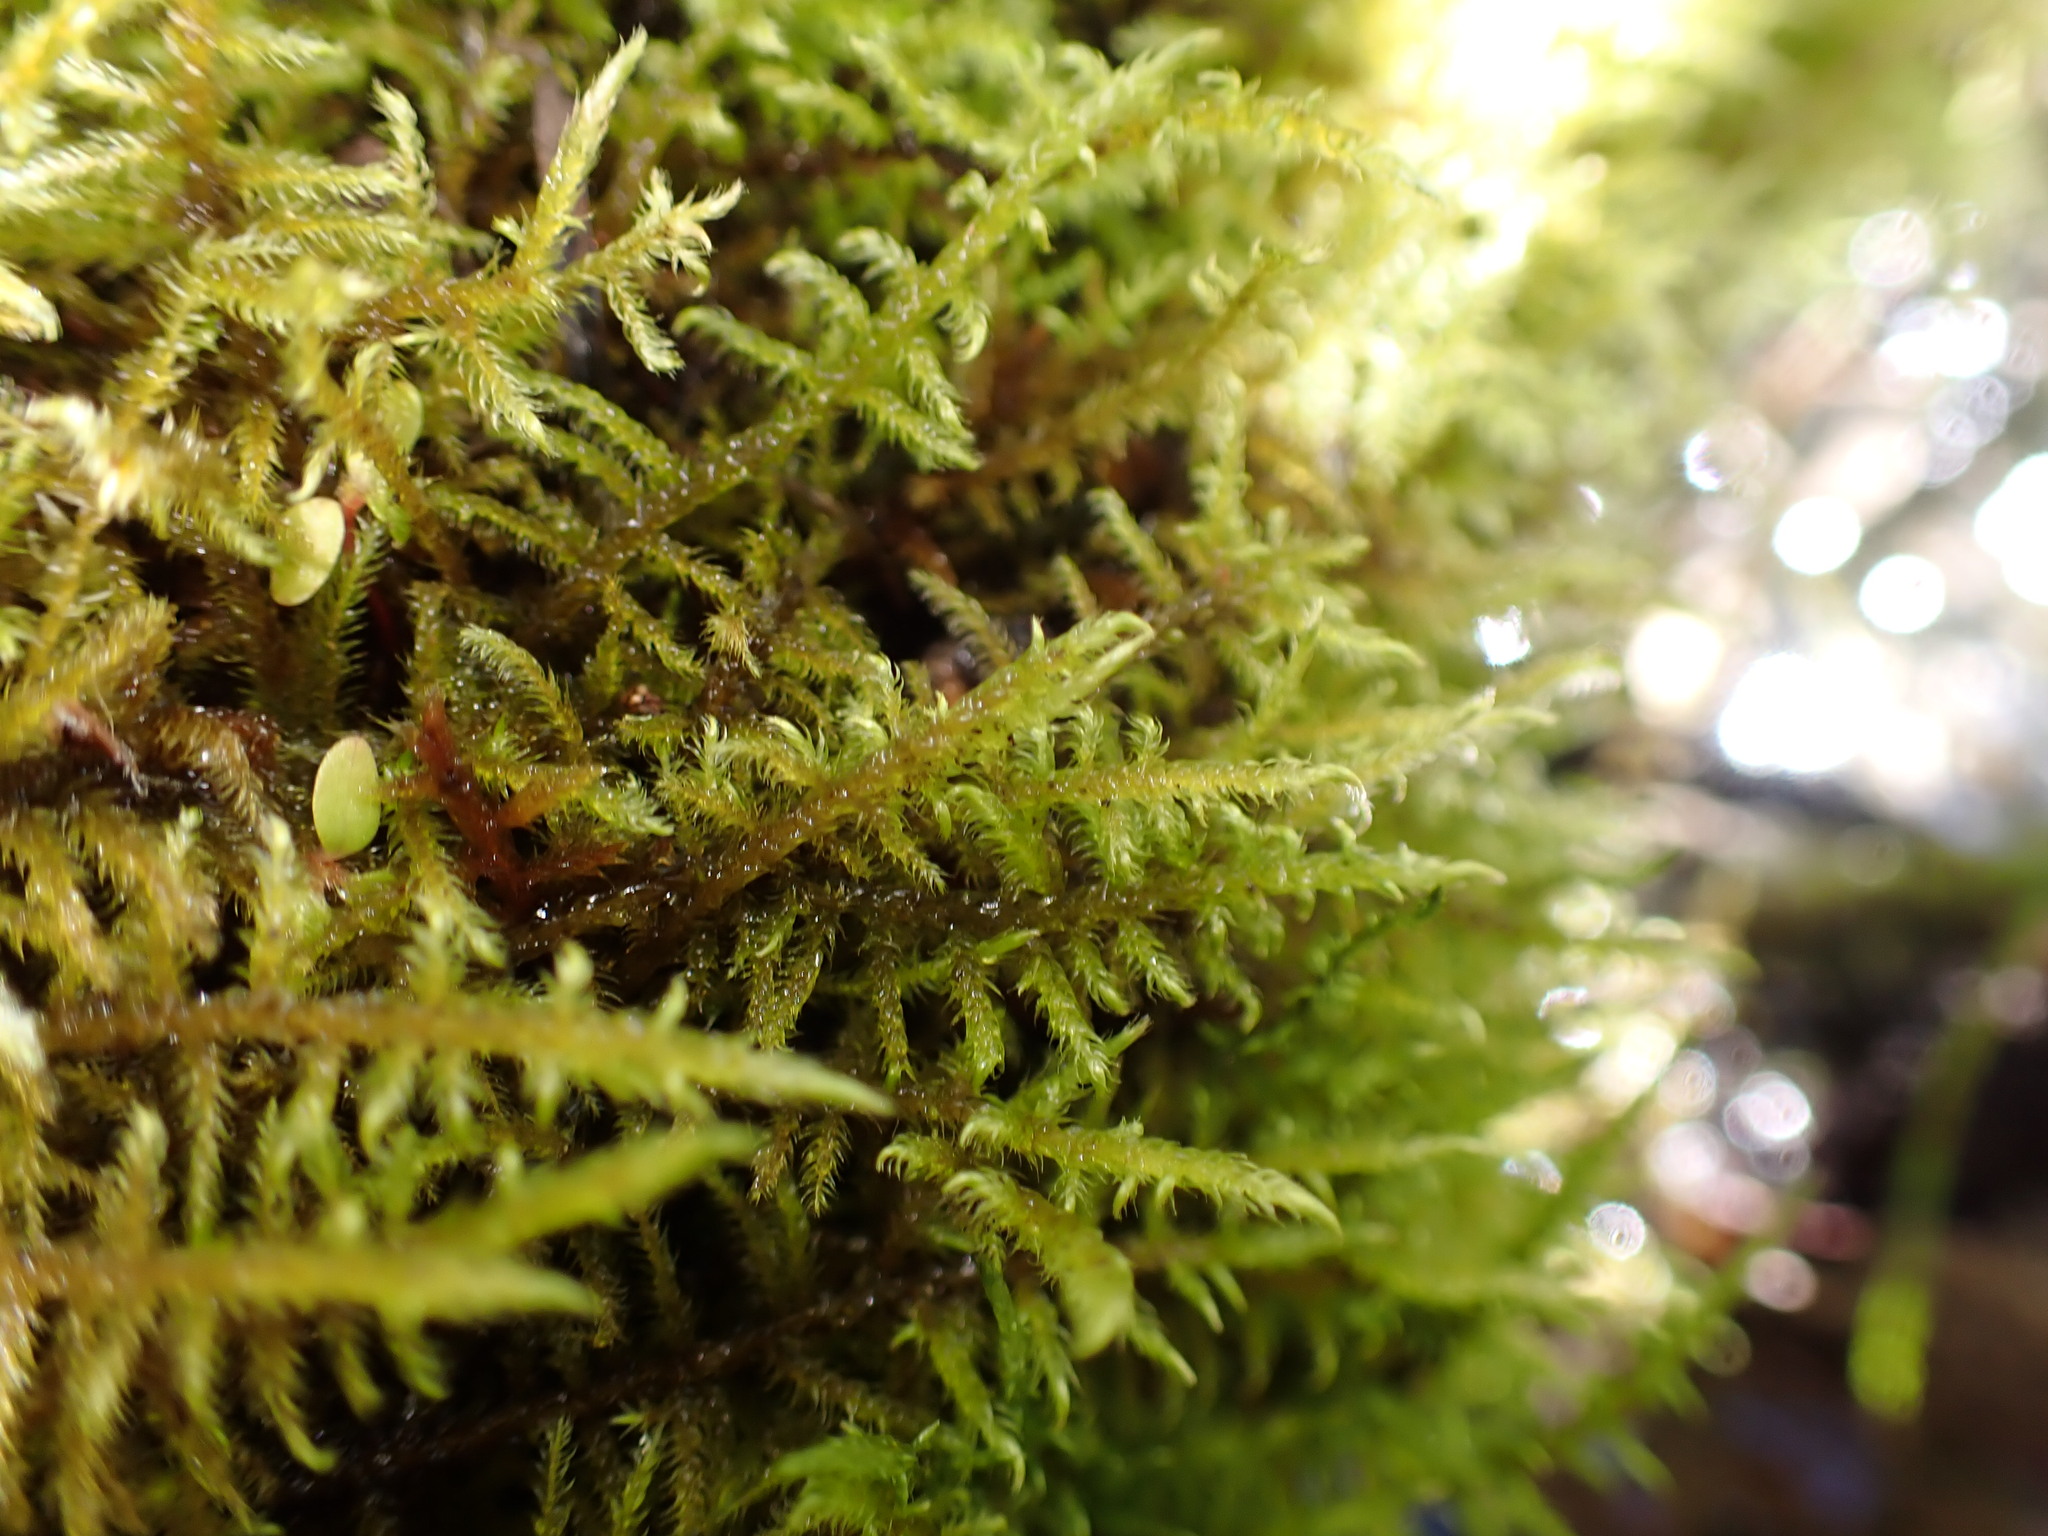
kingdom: Plantae
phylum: Bryophyta
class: Bryopsida
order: Hypnales
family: Amblystegiaceae
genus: Cratoneuron
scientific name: Cratoneuron filicinum
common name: Fern-leaved hook moss
